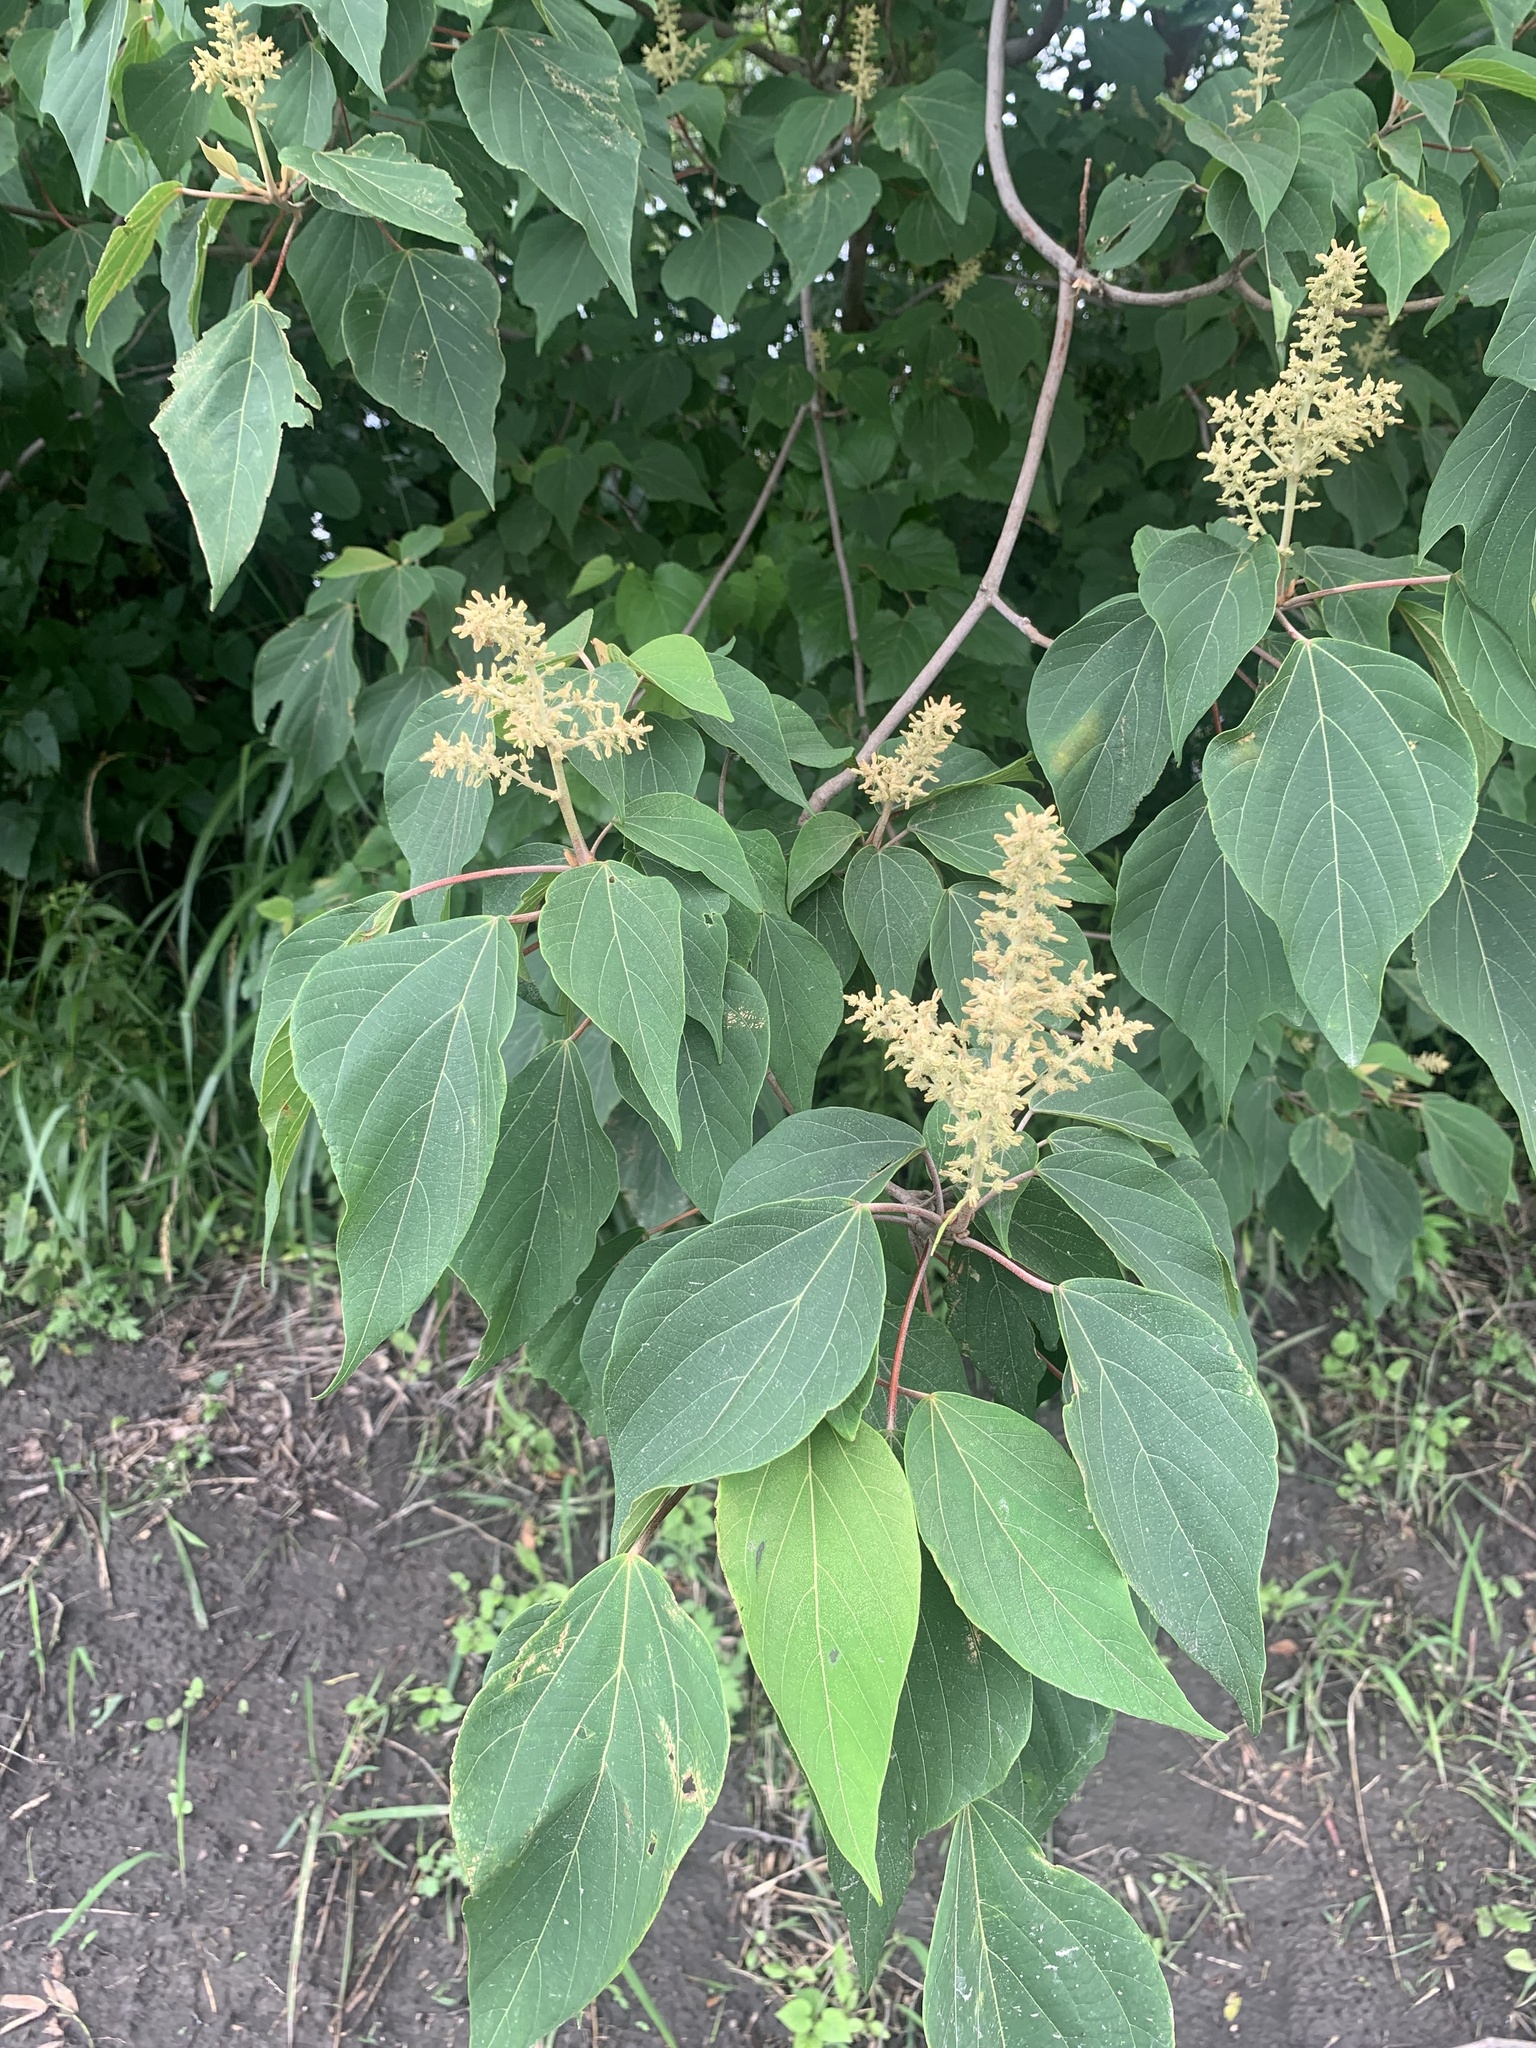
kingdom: Plantae
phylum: Tracheophyta
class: Magnoliopsida
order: Malpighiales
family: Euphorbiaceae
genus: Mallotus
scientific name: Mallotus japonicus
